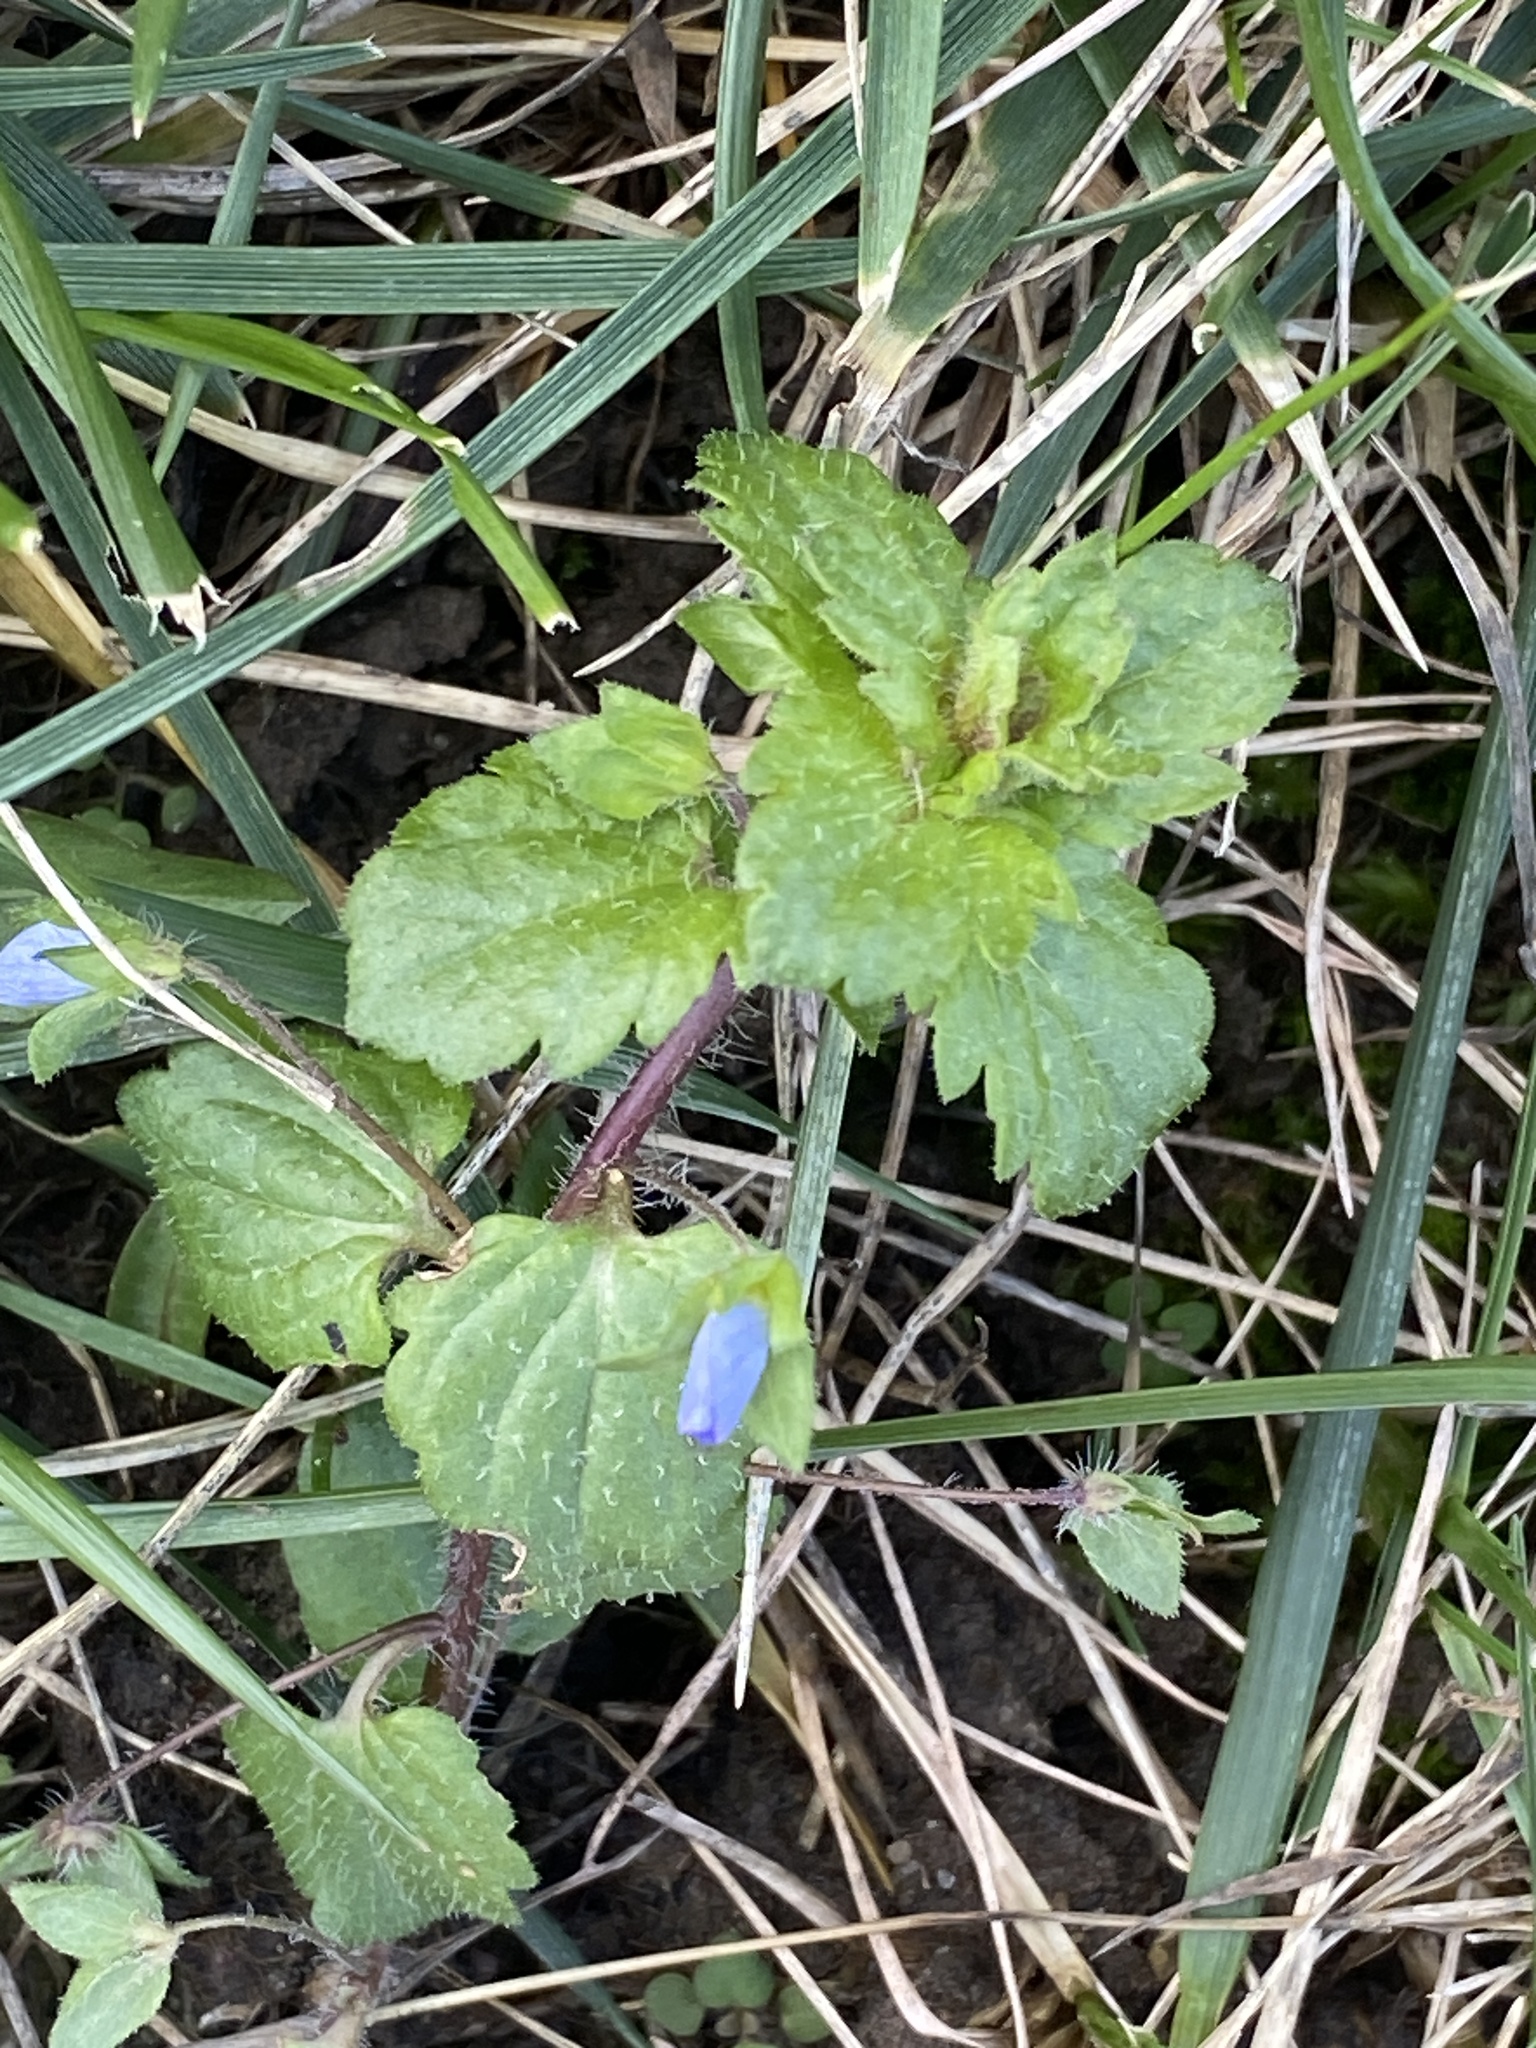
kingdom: Plantae
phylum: Tracheophyta
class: Magnoliopsida
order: Lamiales
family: Plantaginaceae
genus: Veronica
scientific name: Veronica persica
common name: Common field-speedwell
